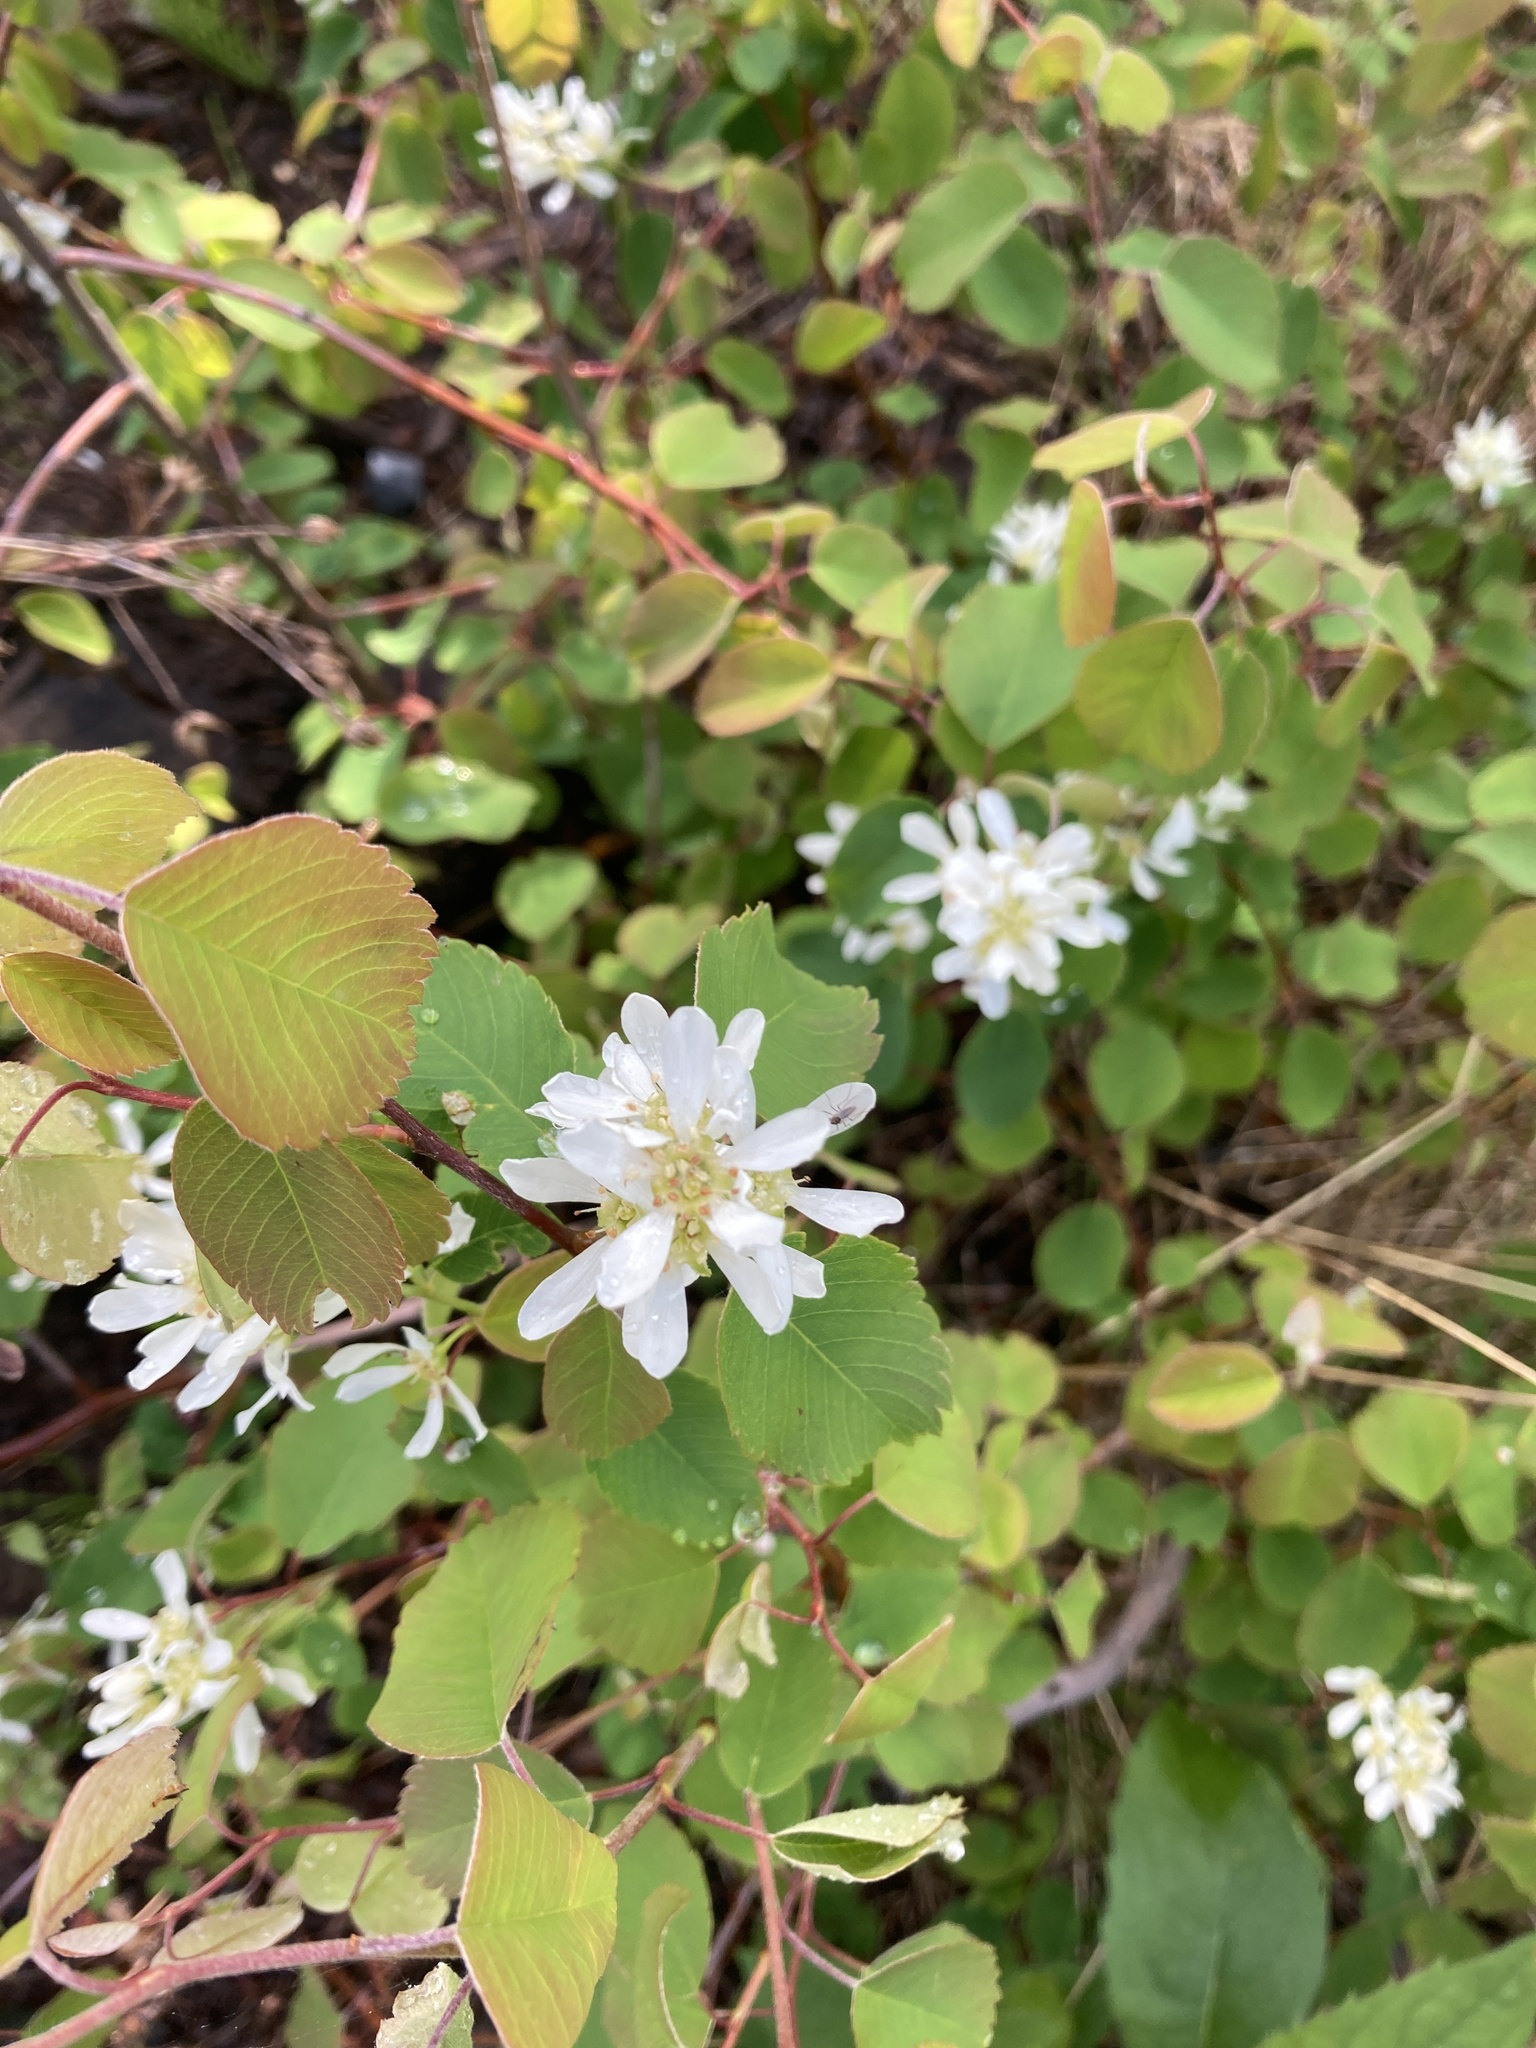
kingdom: Plantae
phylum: Tracheophyta
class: Magnoliopsida
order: Rosales
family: Rosaceae
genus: Amelanchier
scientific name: Amelanchier alnifolia
